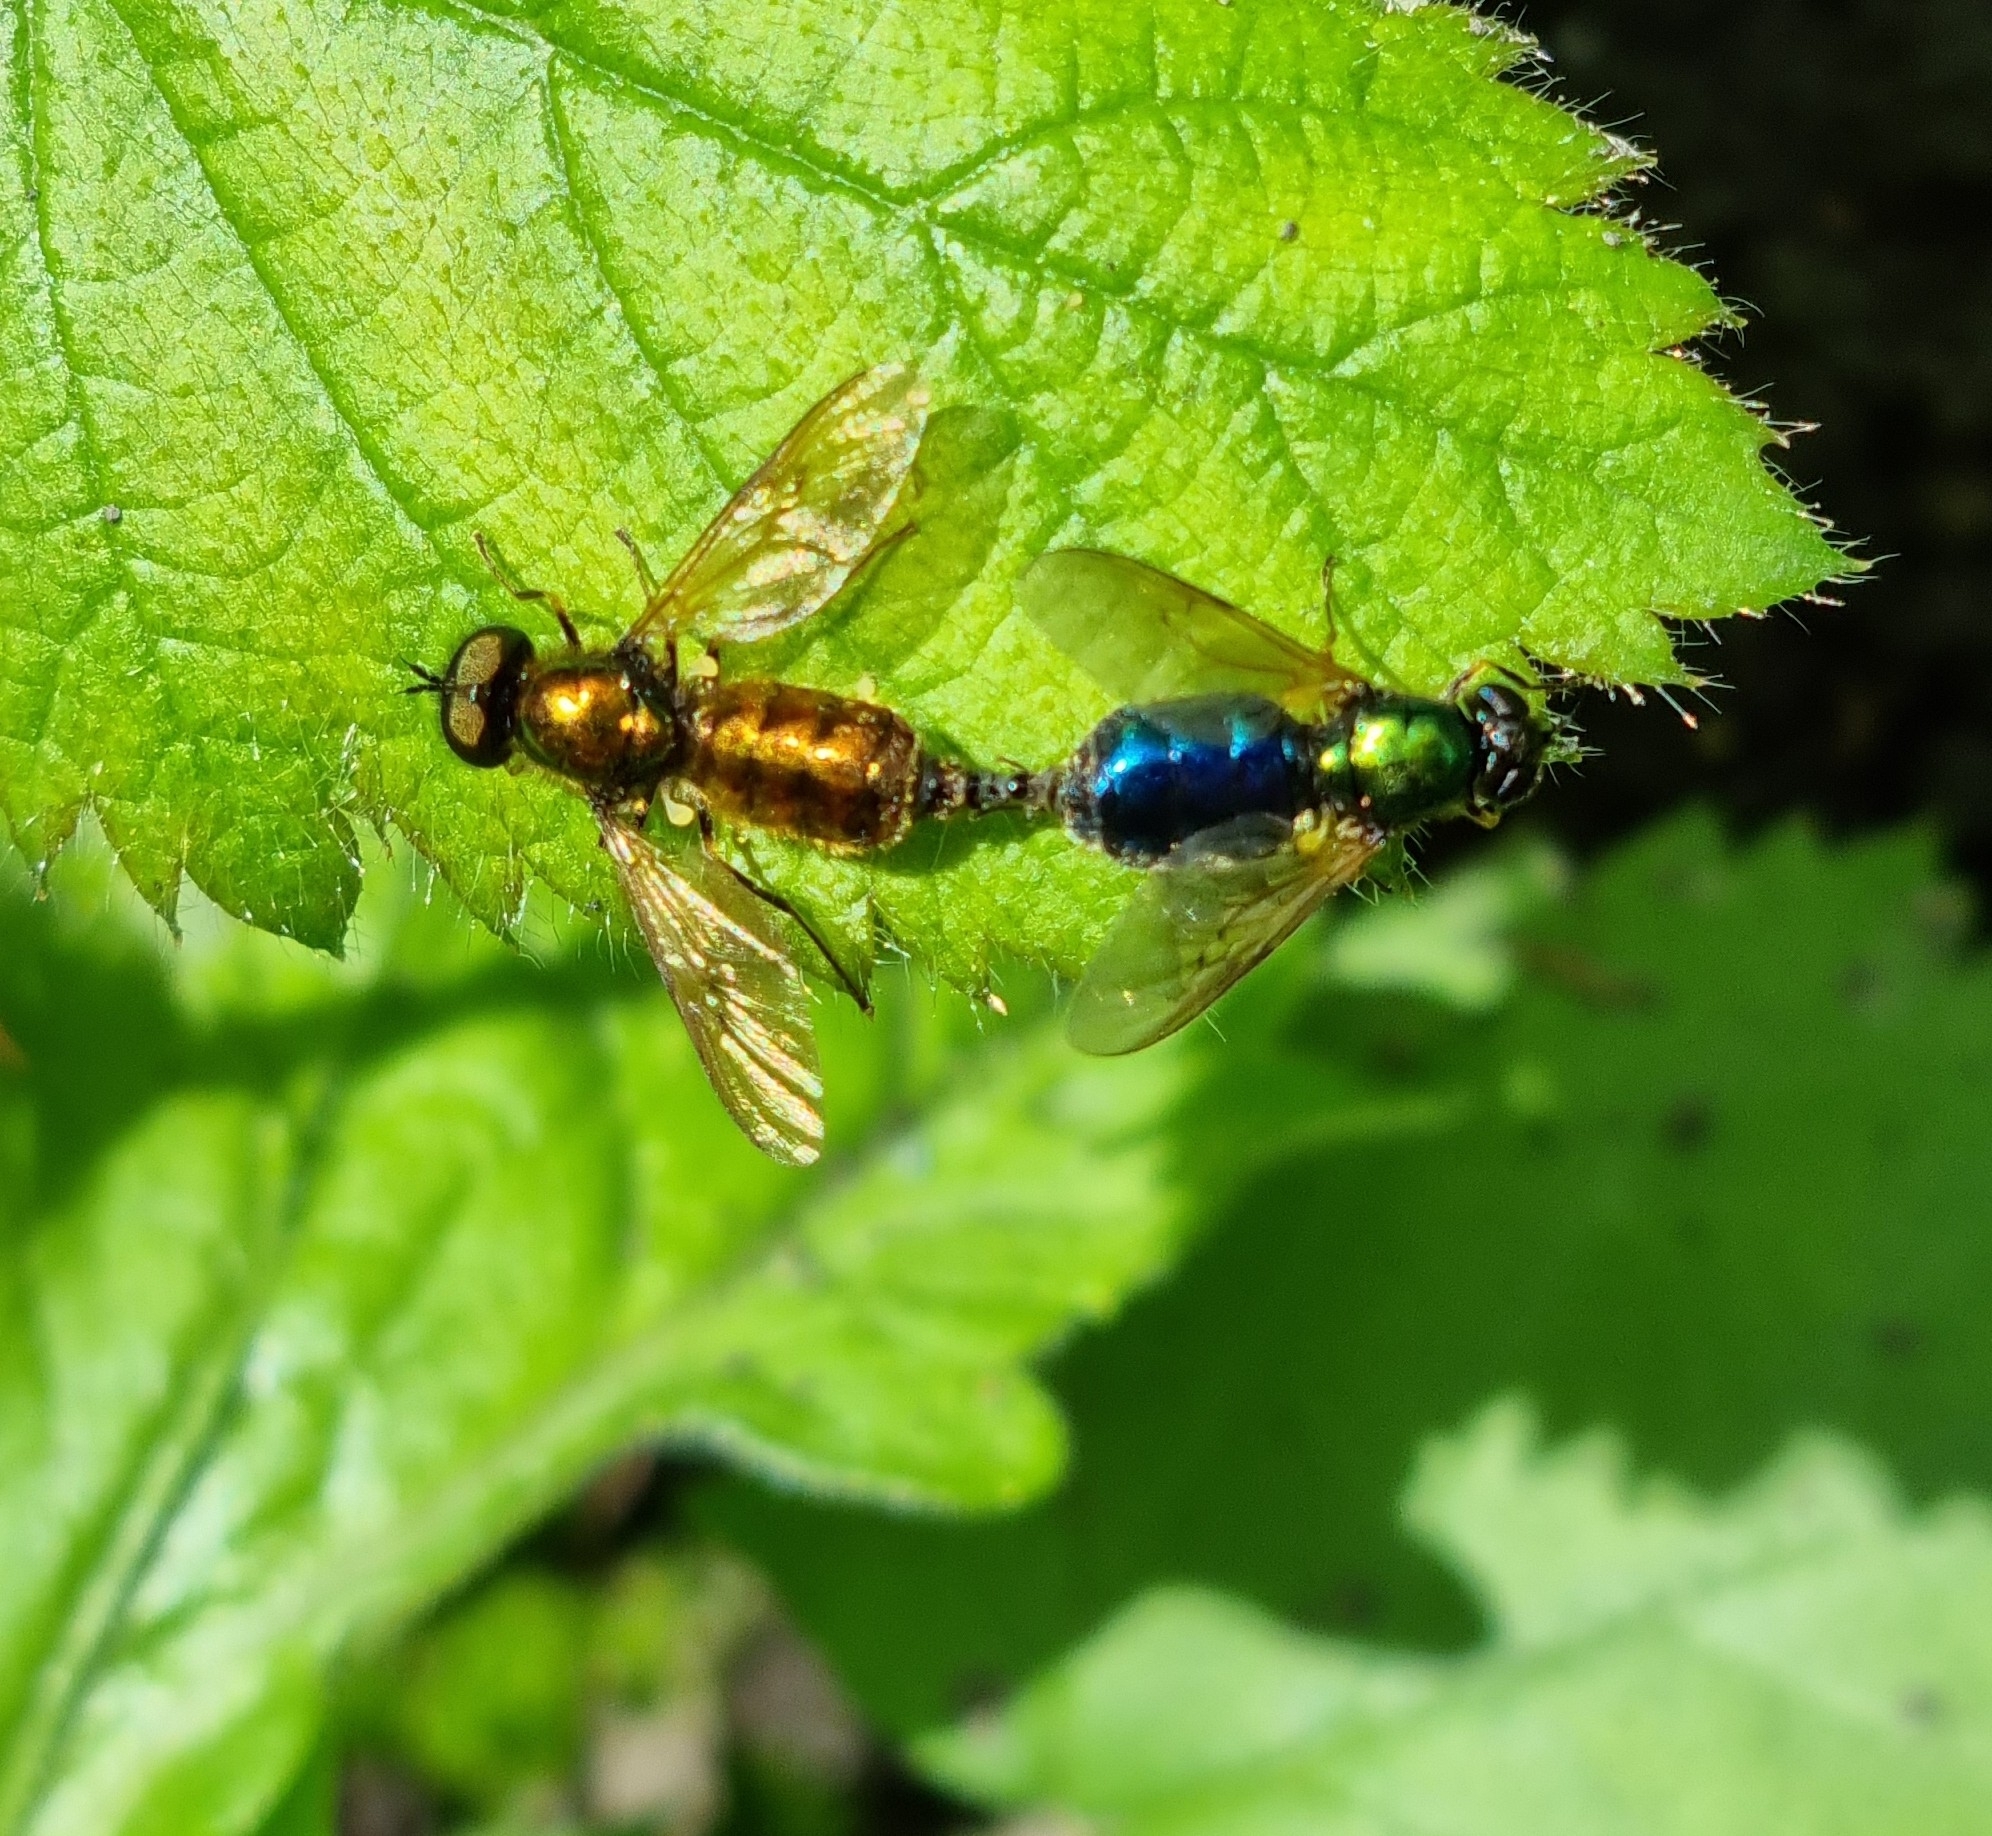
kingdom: Animalia
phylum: Arthropoda
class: Insecta
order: Diptera
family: Stratiomyidae
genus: Chloromyia
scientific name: Chloromyia formosa
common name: Soldier fly
